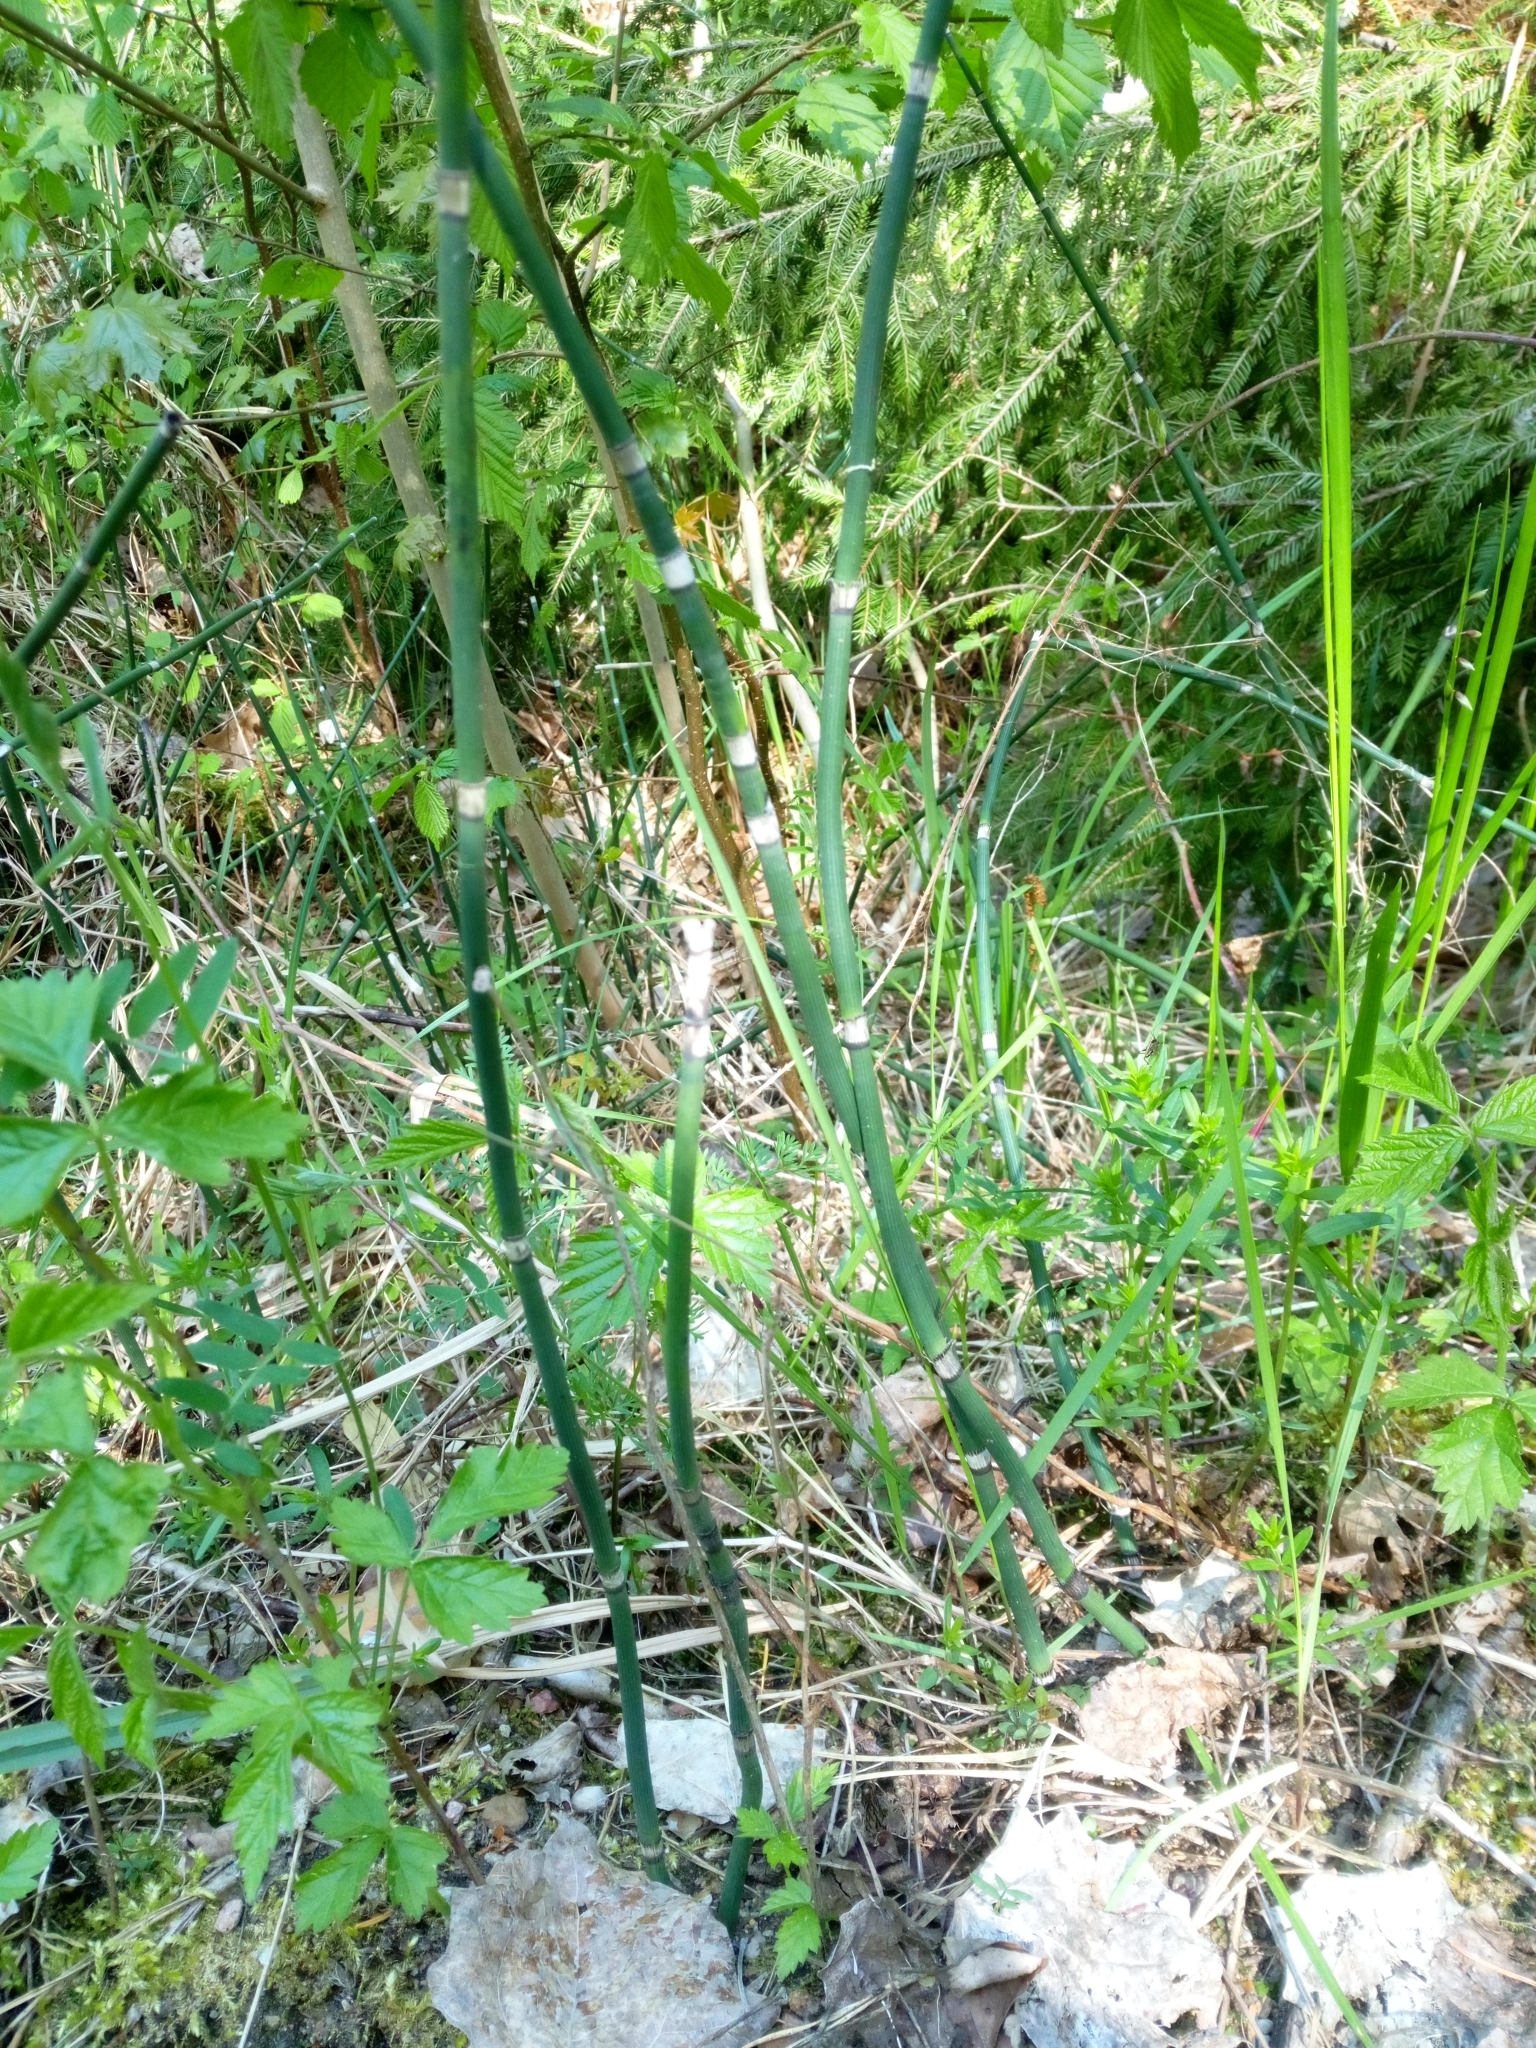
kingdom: Plantae
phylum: Tracheophyta
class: Polypodiopsida
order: Equisetales
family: Equisetaceae
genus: Equisetum
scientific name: Equisetum hyemale
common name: Rough horsetail
